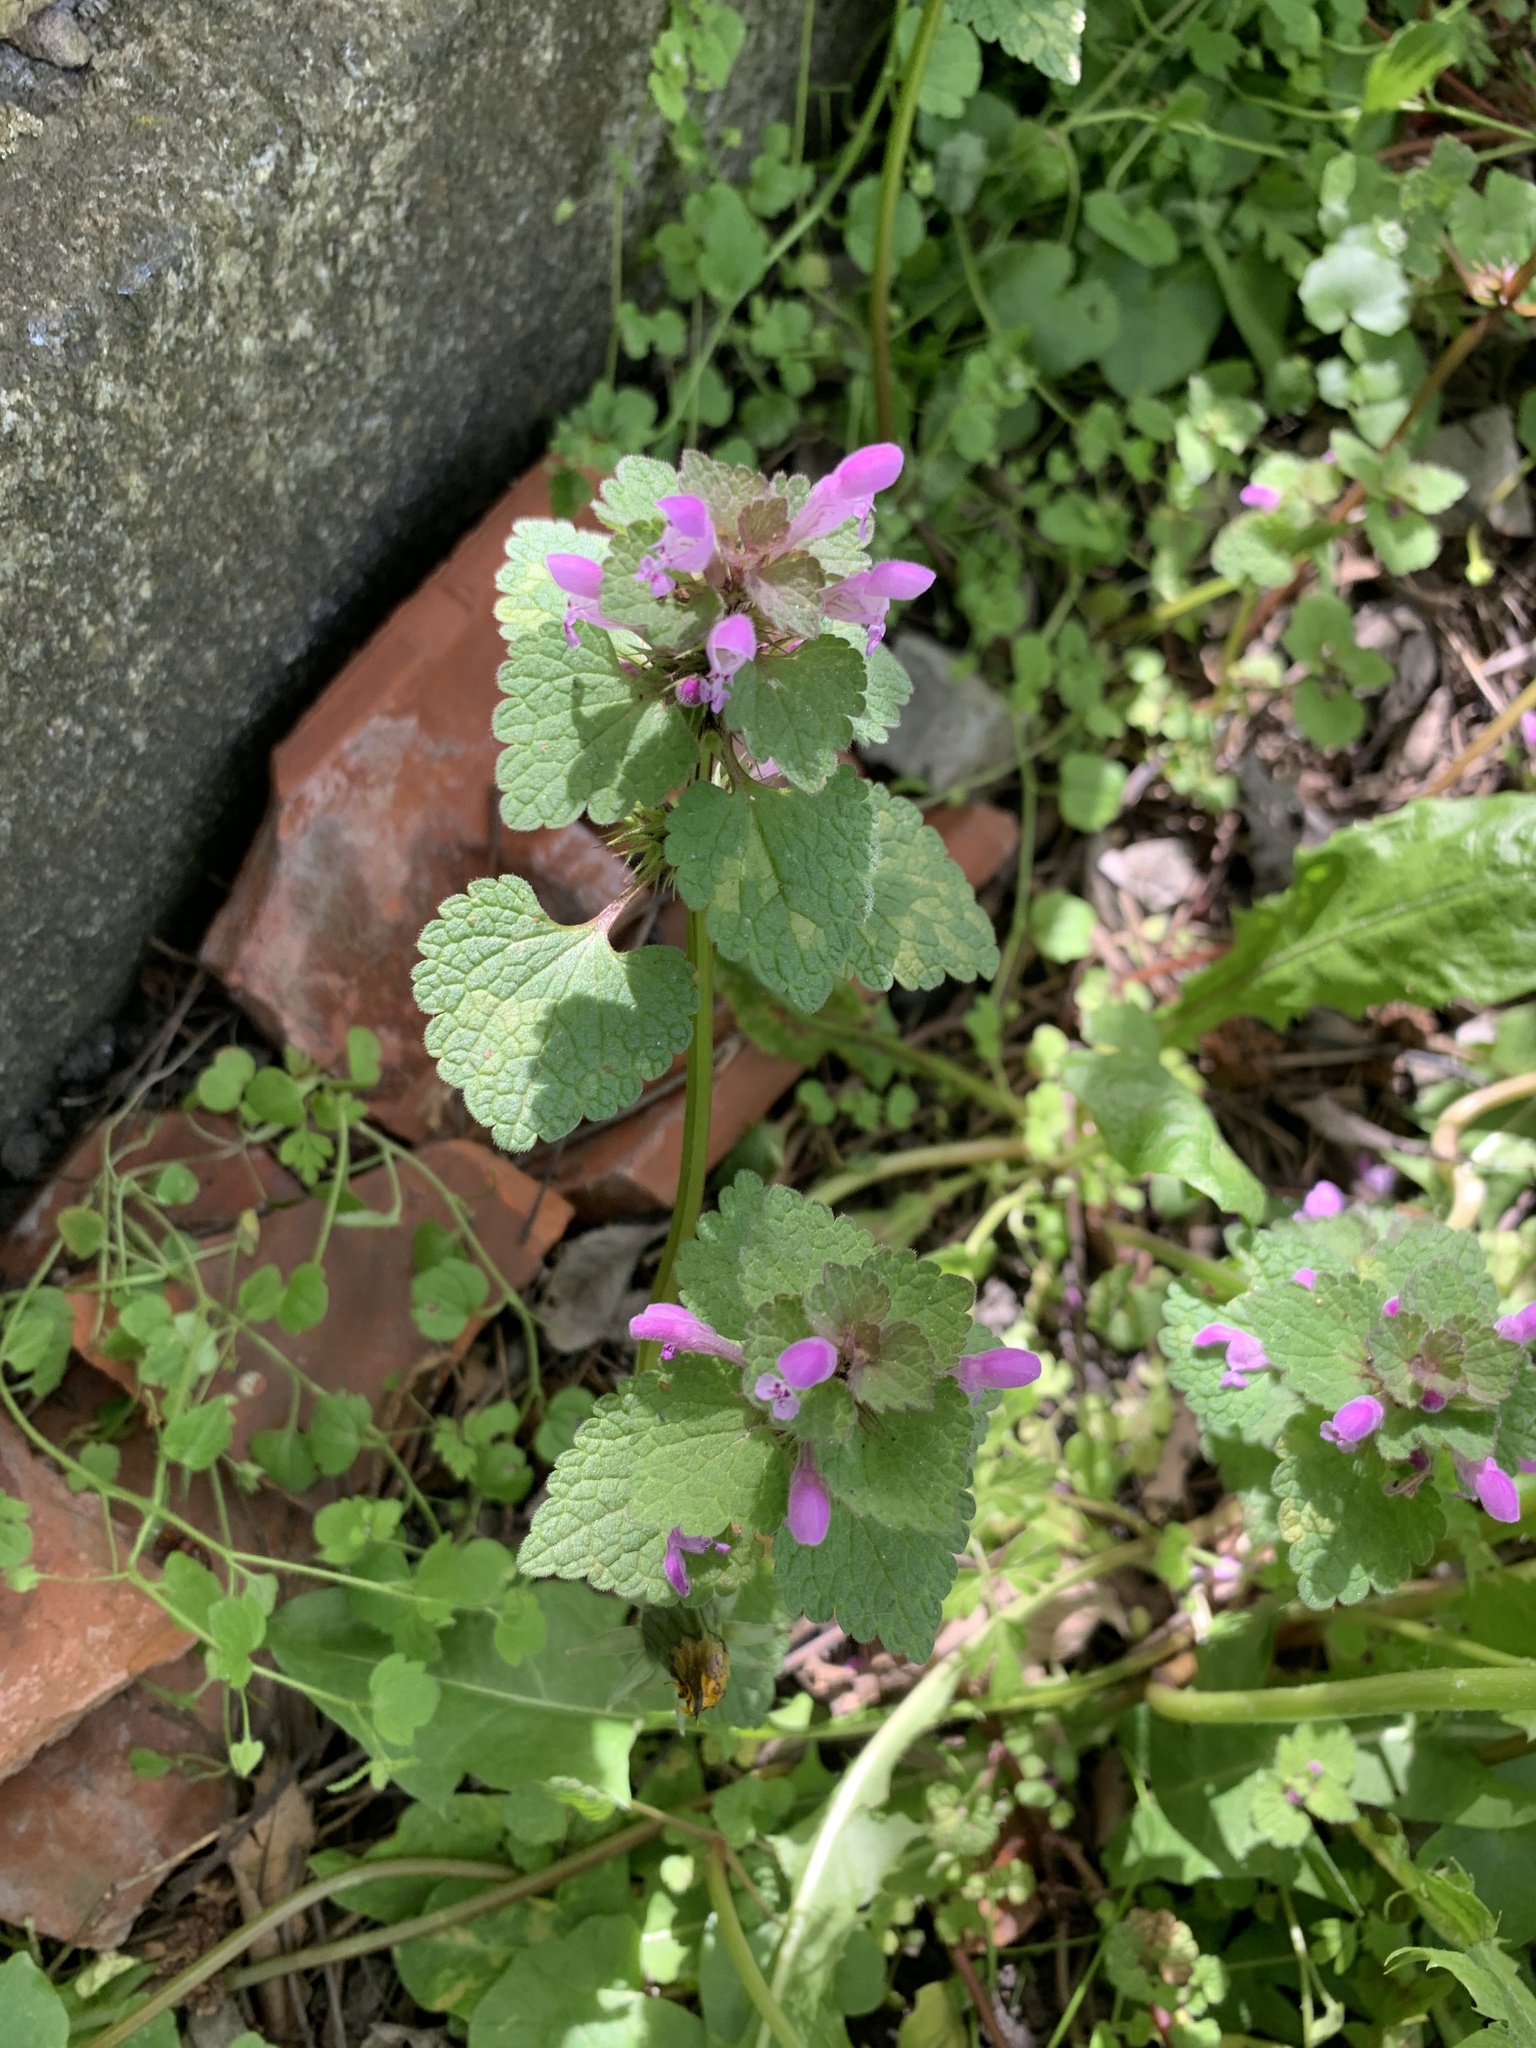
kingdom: Plantae
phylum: Tracheophyta
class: Magnoliopsida
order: Lamiales
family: Lamiaceae
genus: Lamium
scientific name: Lamium purpureum
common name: Red dead-nettle
